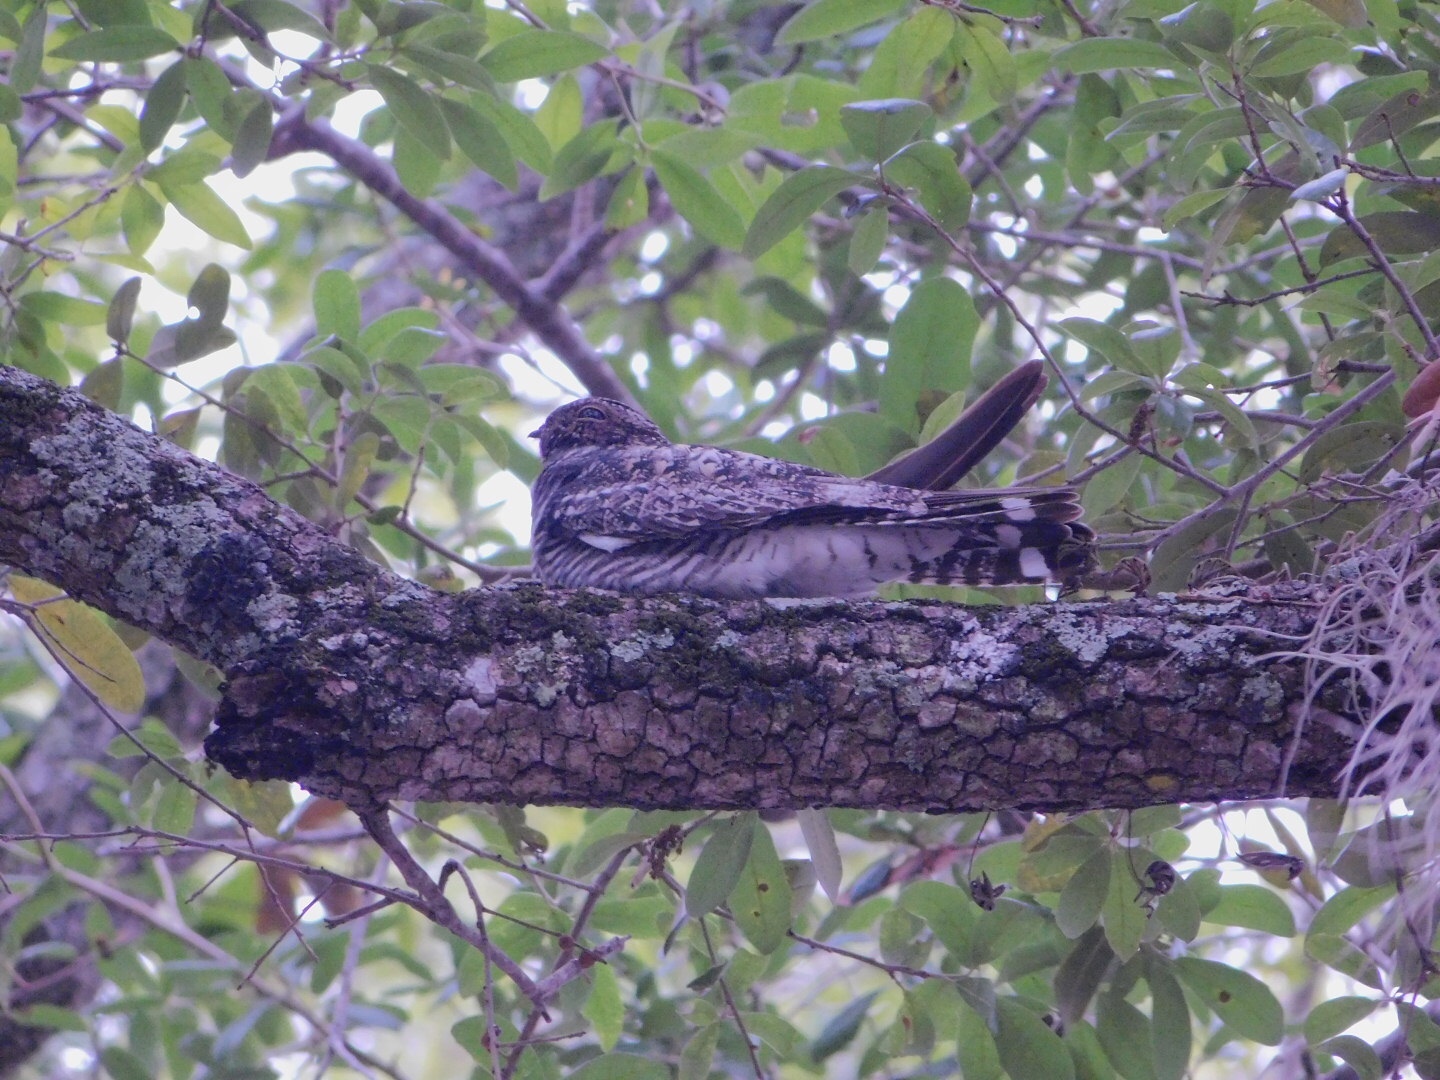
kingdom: Animalia
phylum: Chordata
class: Aves
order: Caprimulgiformes
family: Caprimulgidae
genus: Chordeiles
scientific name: Chordeiles minor
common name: Common nighthawk
